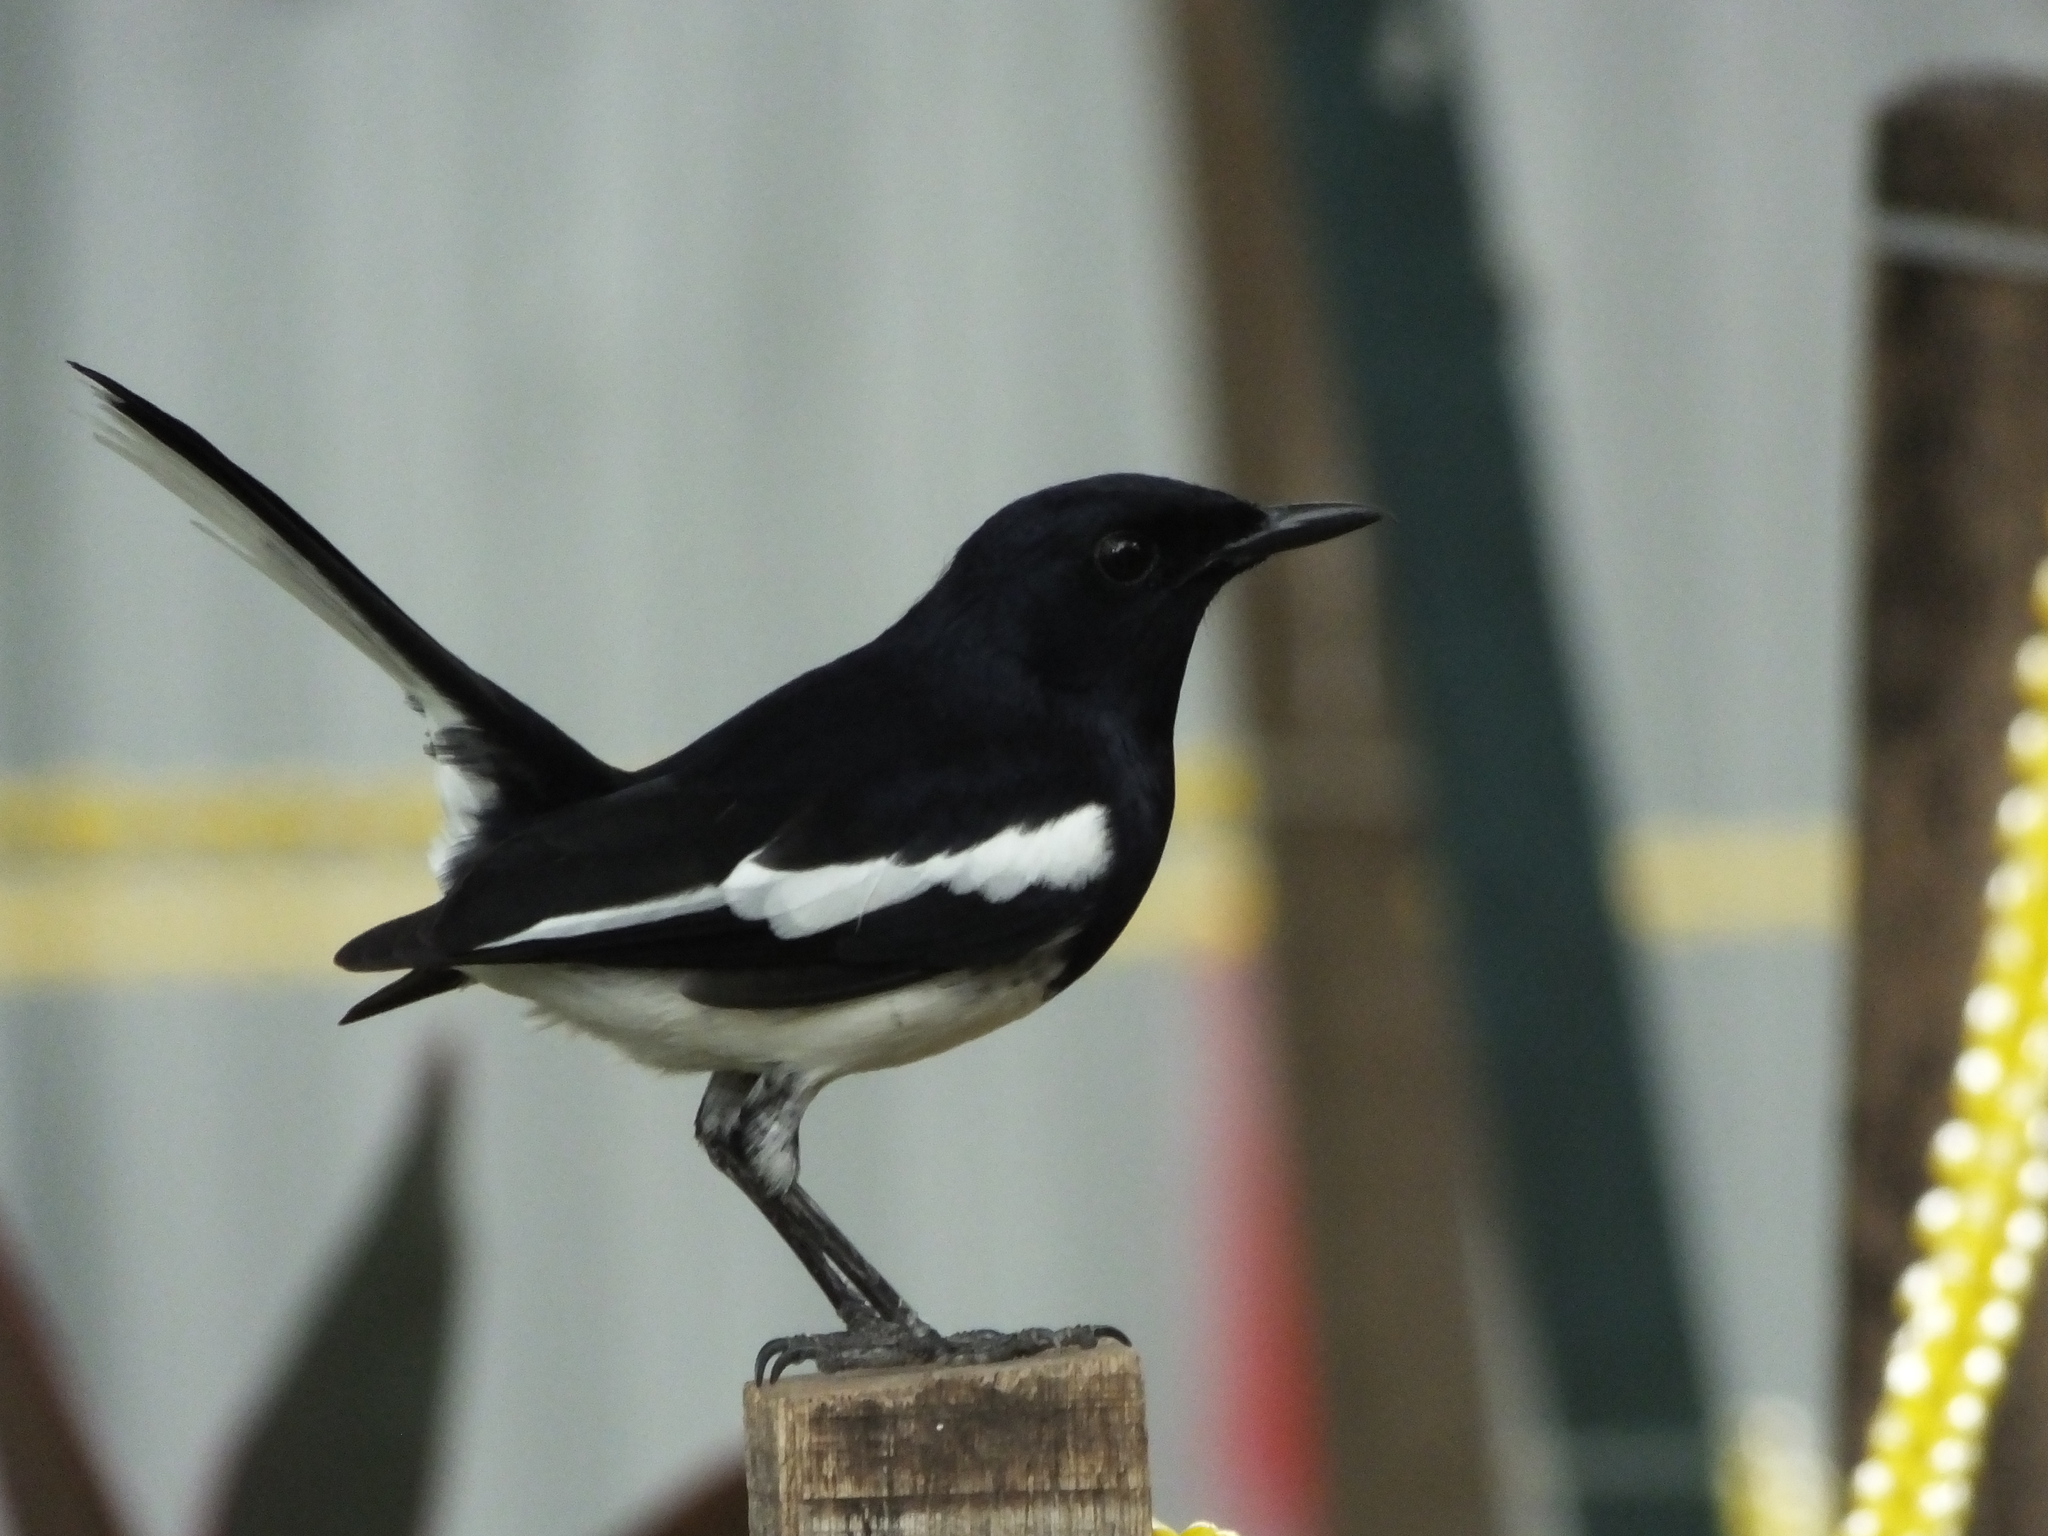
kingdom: Animalia
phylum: Chordata
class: Aves
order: Passeriformes
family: Muscicapidae
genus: Copsychus
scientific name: Copsychus saularis
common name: Oriental magpie-robin
